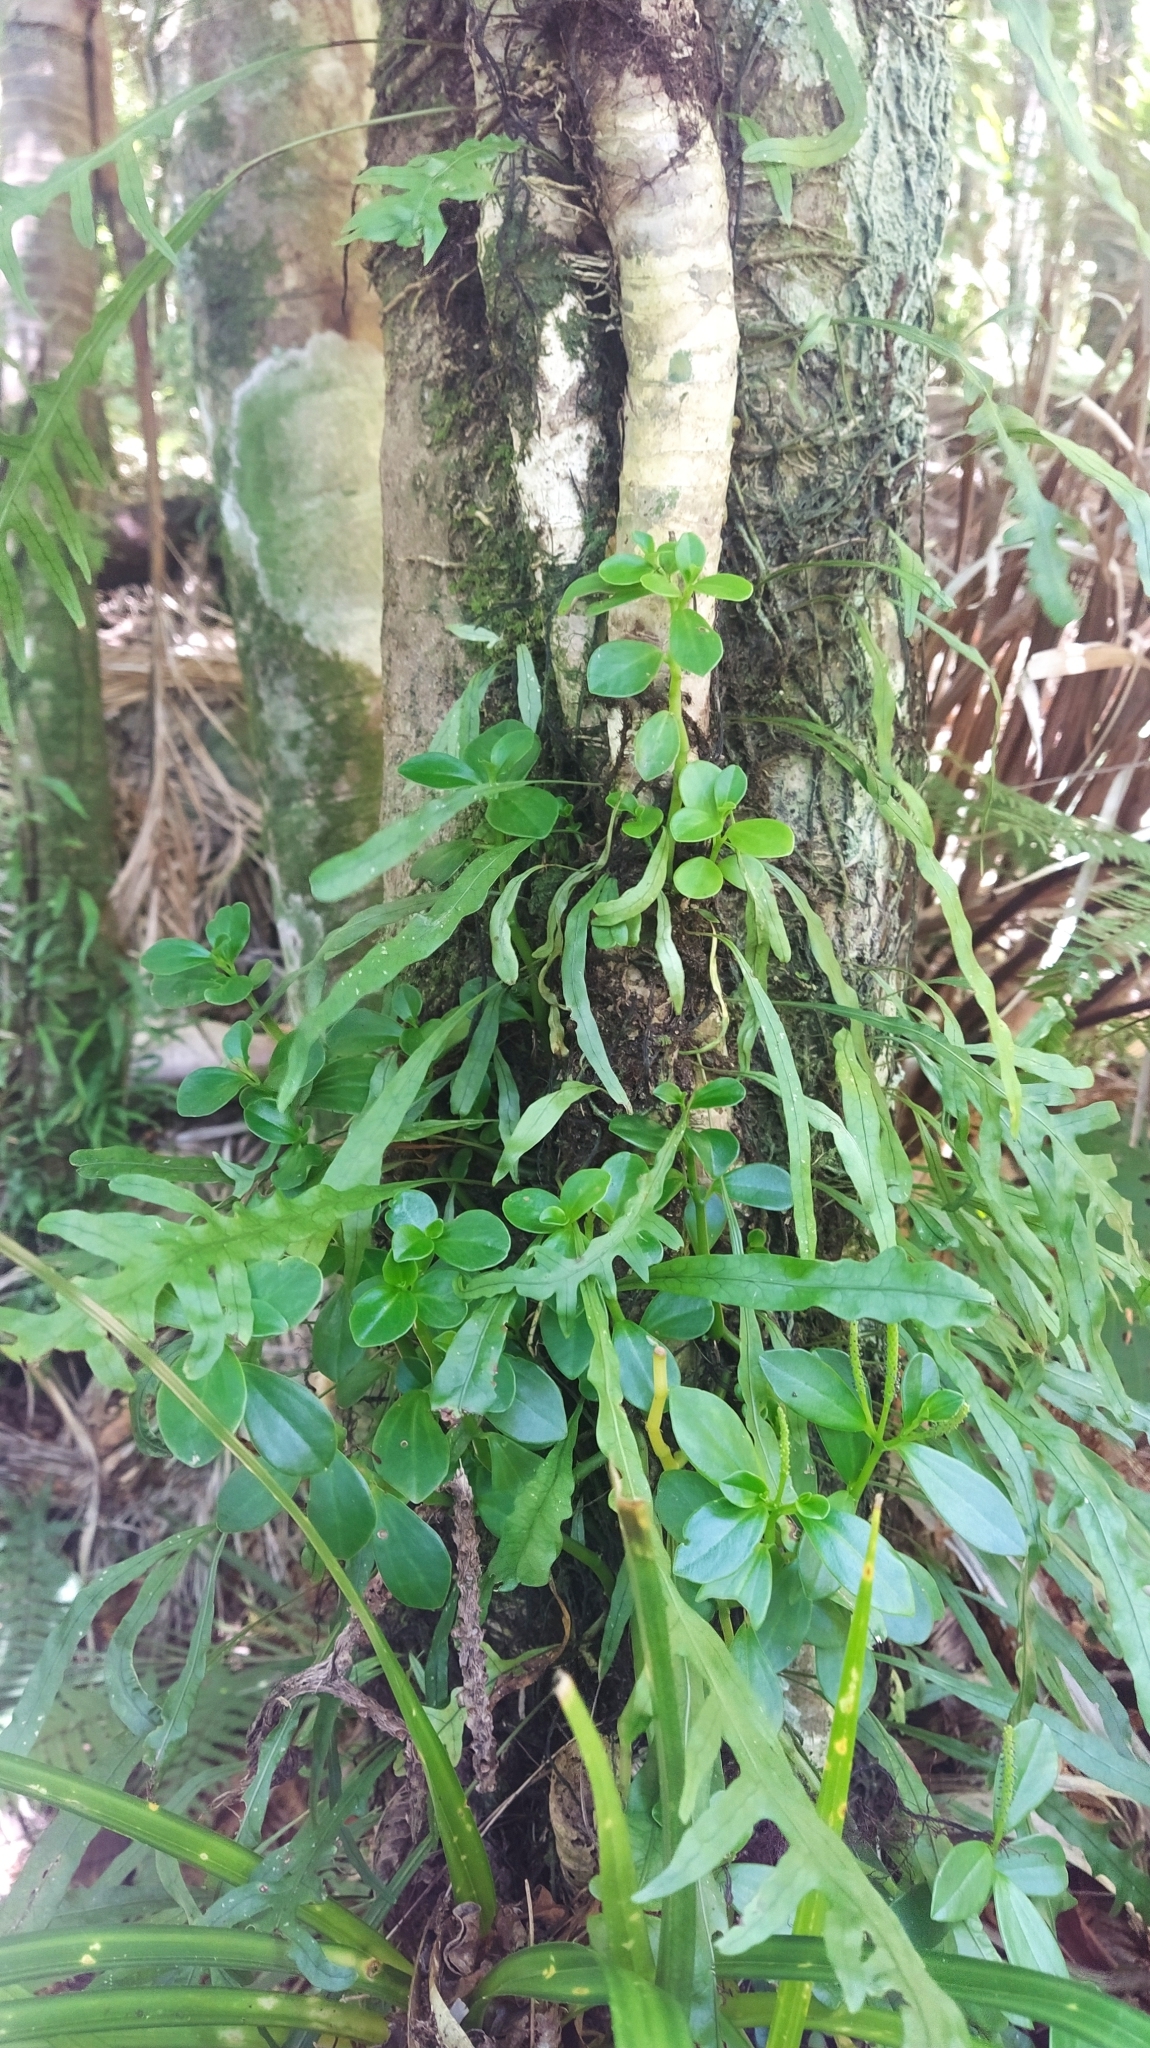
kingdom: Plantae
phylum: Tracheophyta
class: Magnoliopsida
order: Piperales
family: Piperaceae
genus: Peperomia
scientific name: Peperomia urvilleana
